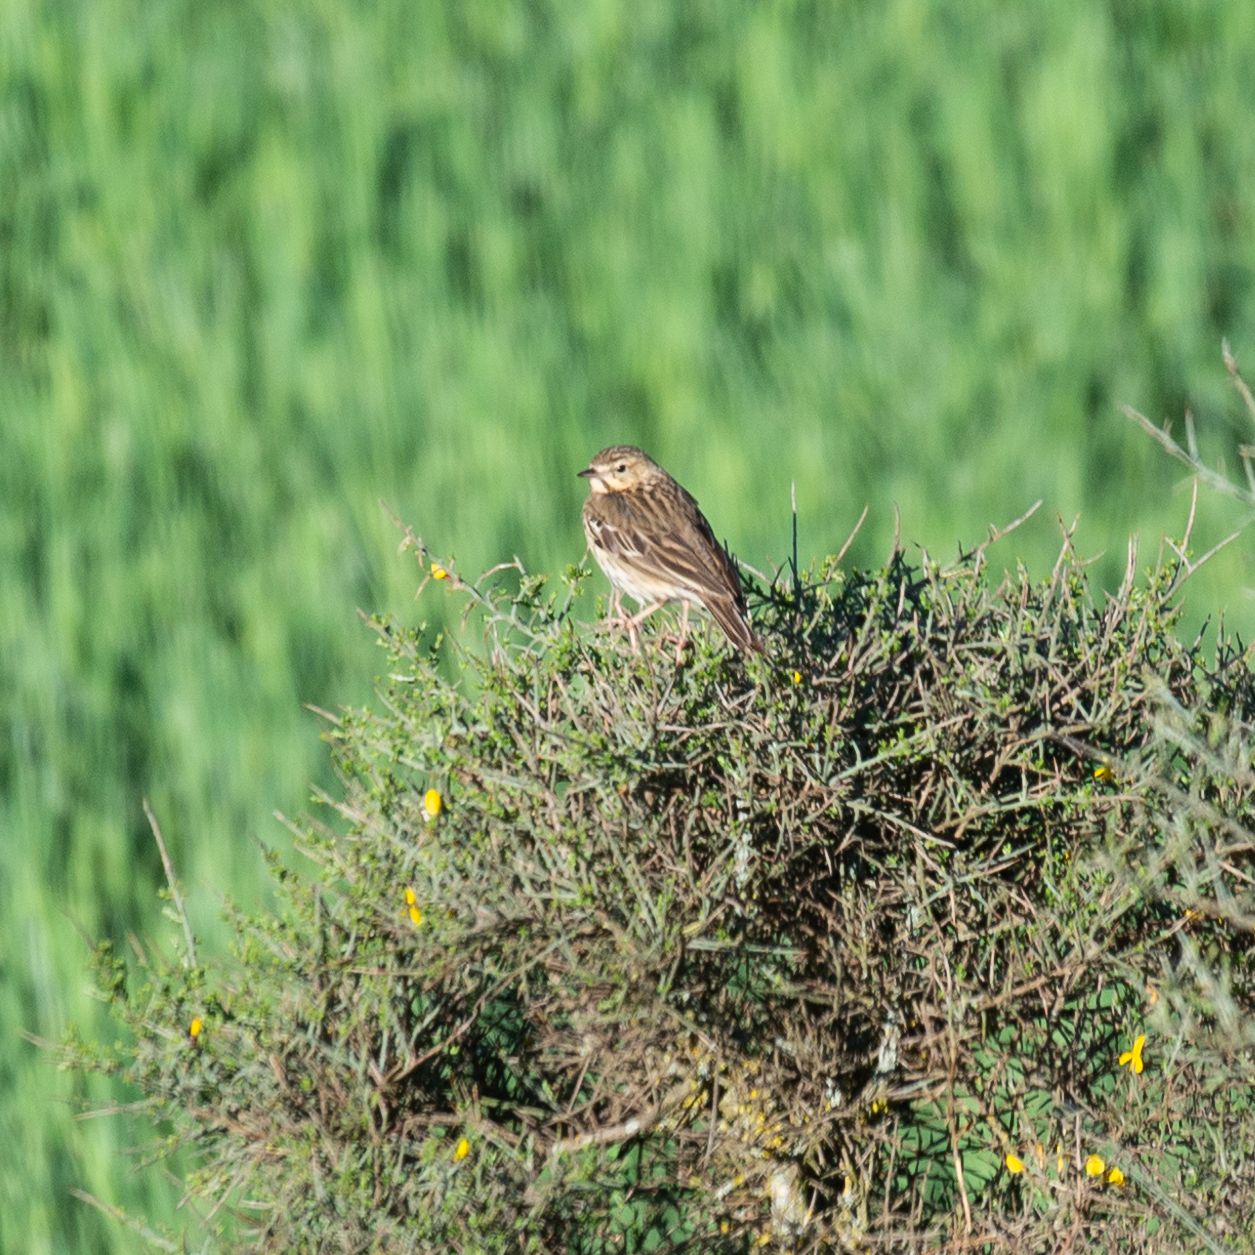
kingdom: Animalia
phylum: Chordata
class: Aves
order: Passeriformes
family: Motacillidae
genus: Anthus
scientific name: Anthus trivialis
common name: Tree pipit
